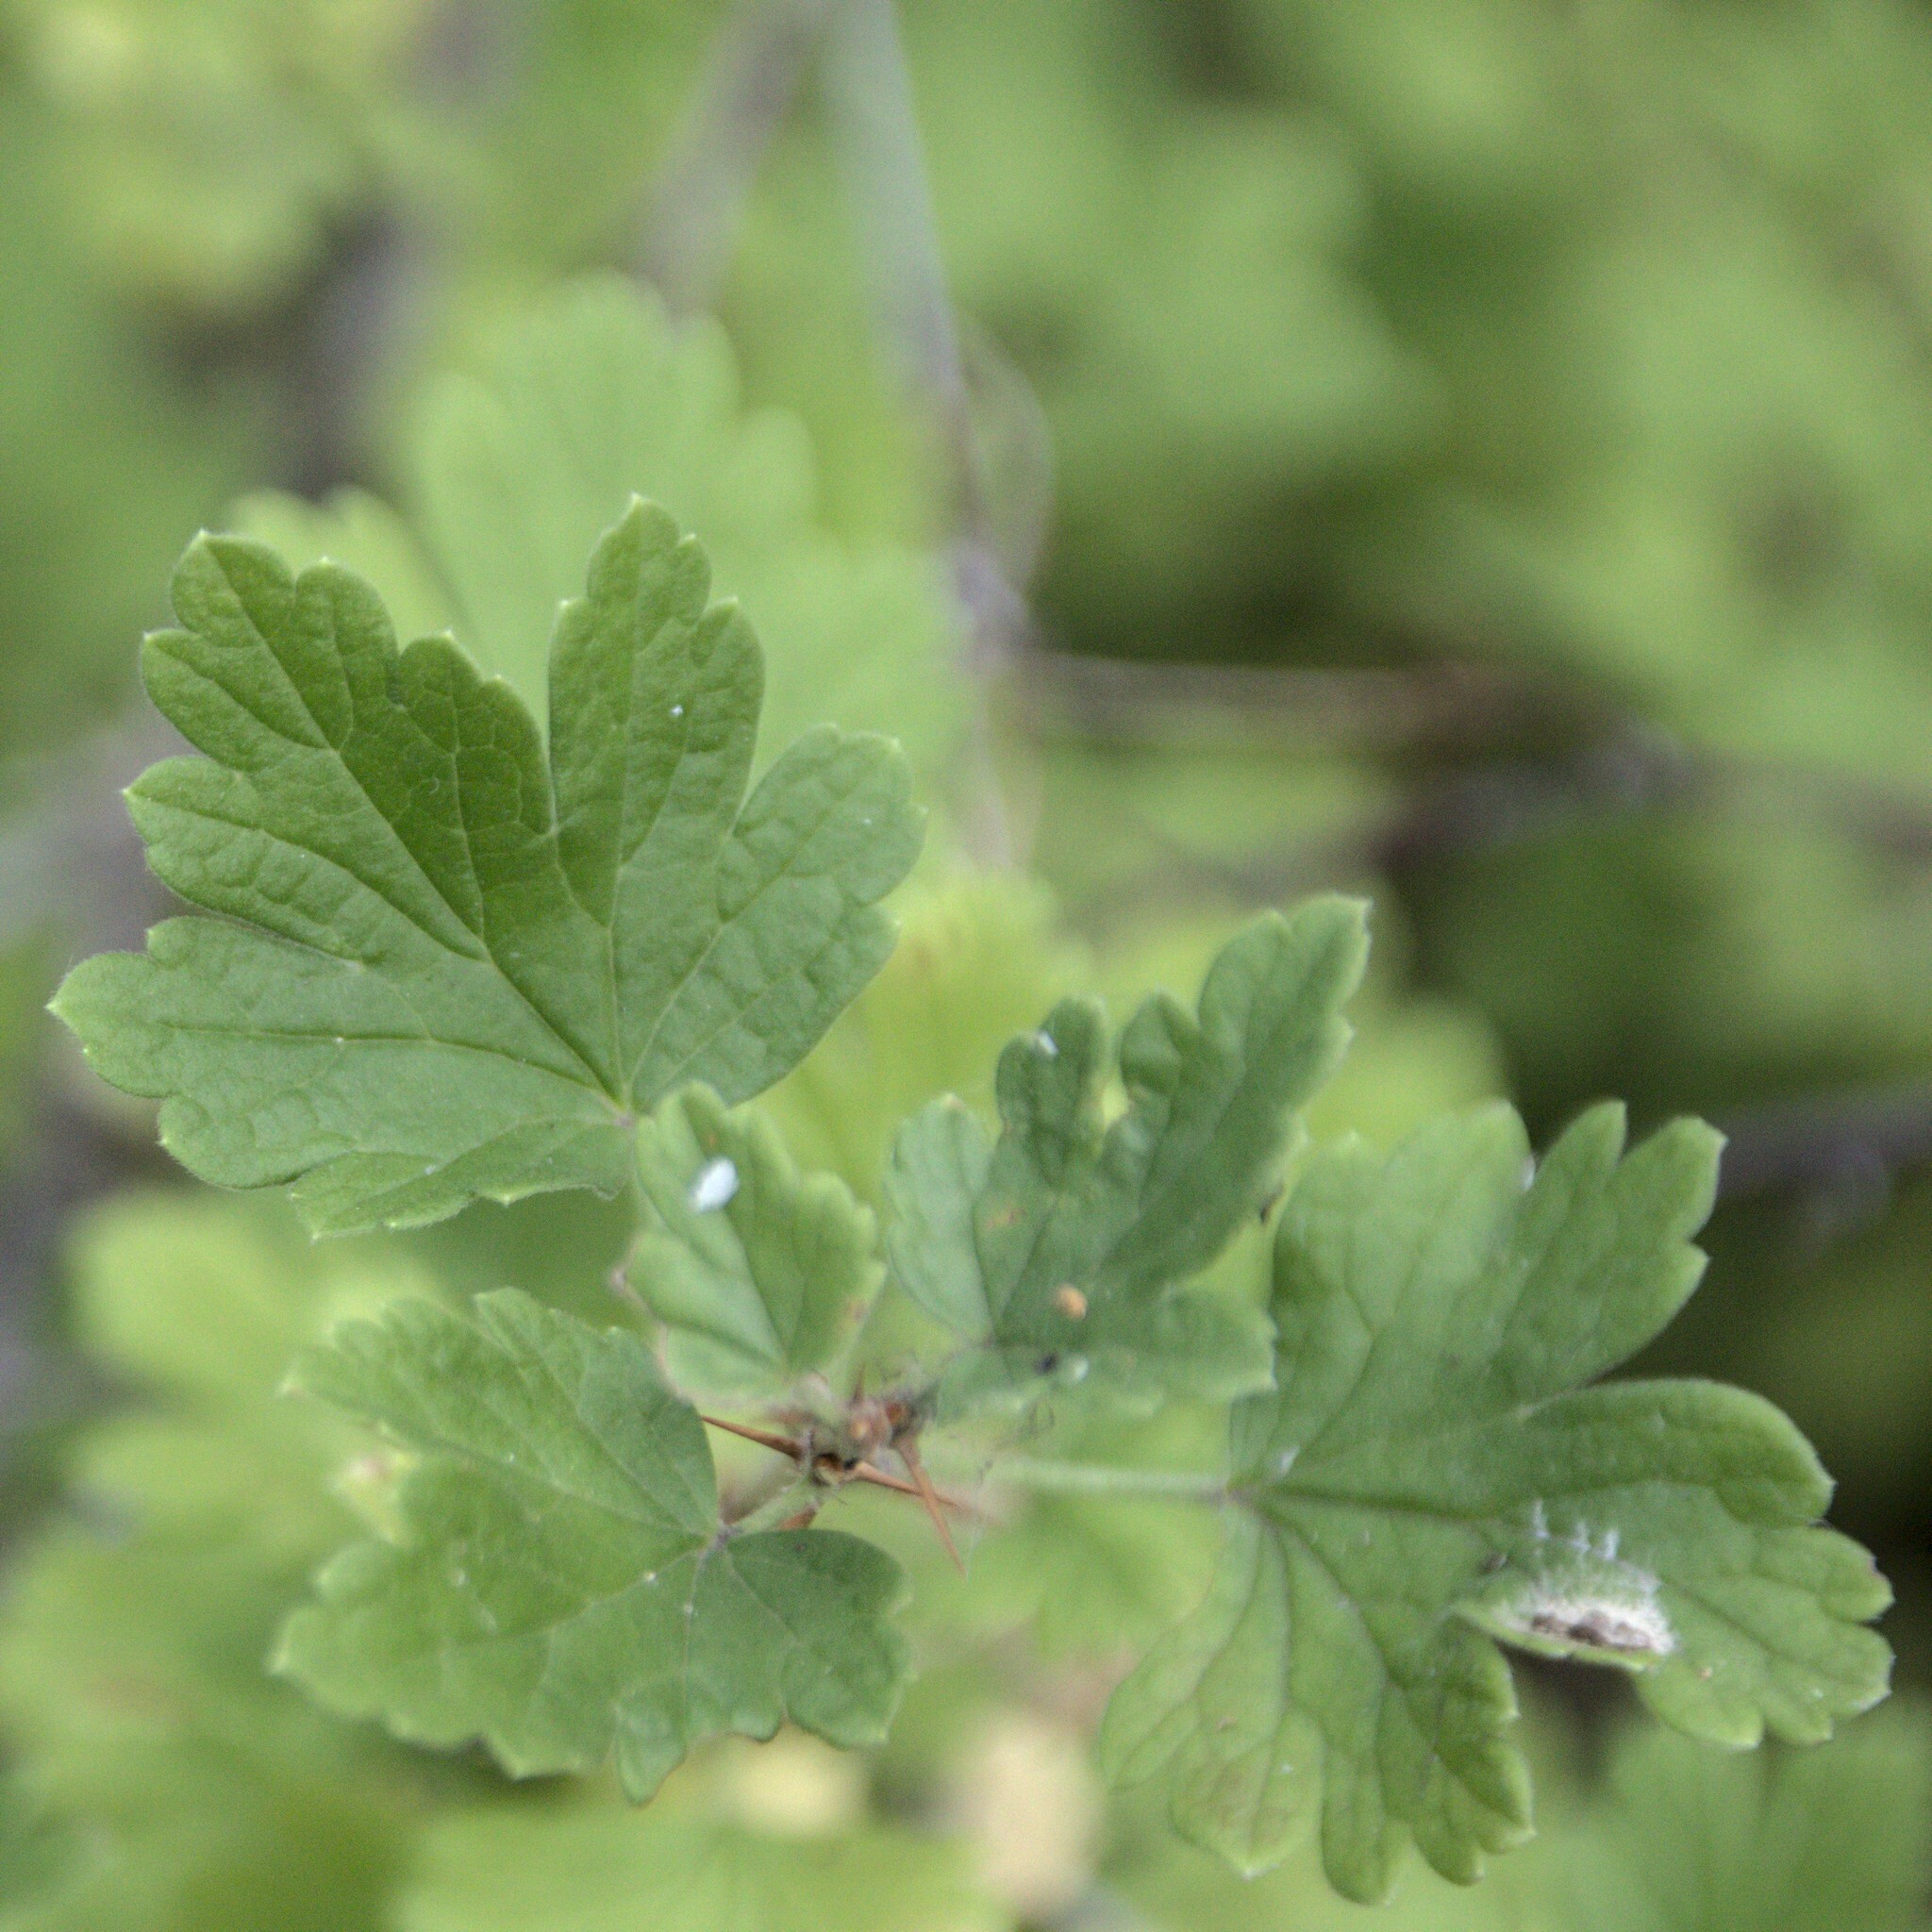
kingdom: Plantae
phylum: Tracheophyta
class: Magnoliopsida
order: Saxifragales
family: Grossulariaceae
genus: Ribes
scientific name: Ribes uva-crispa
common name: Gooseberry
